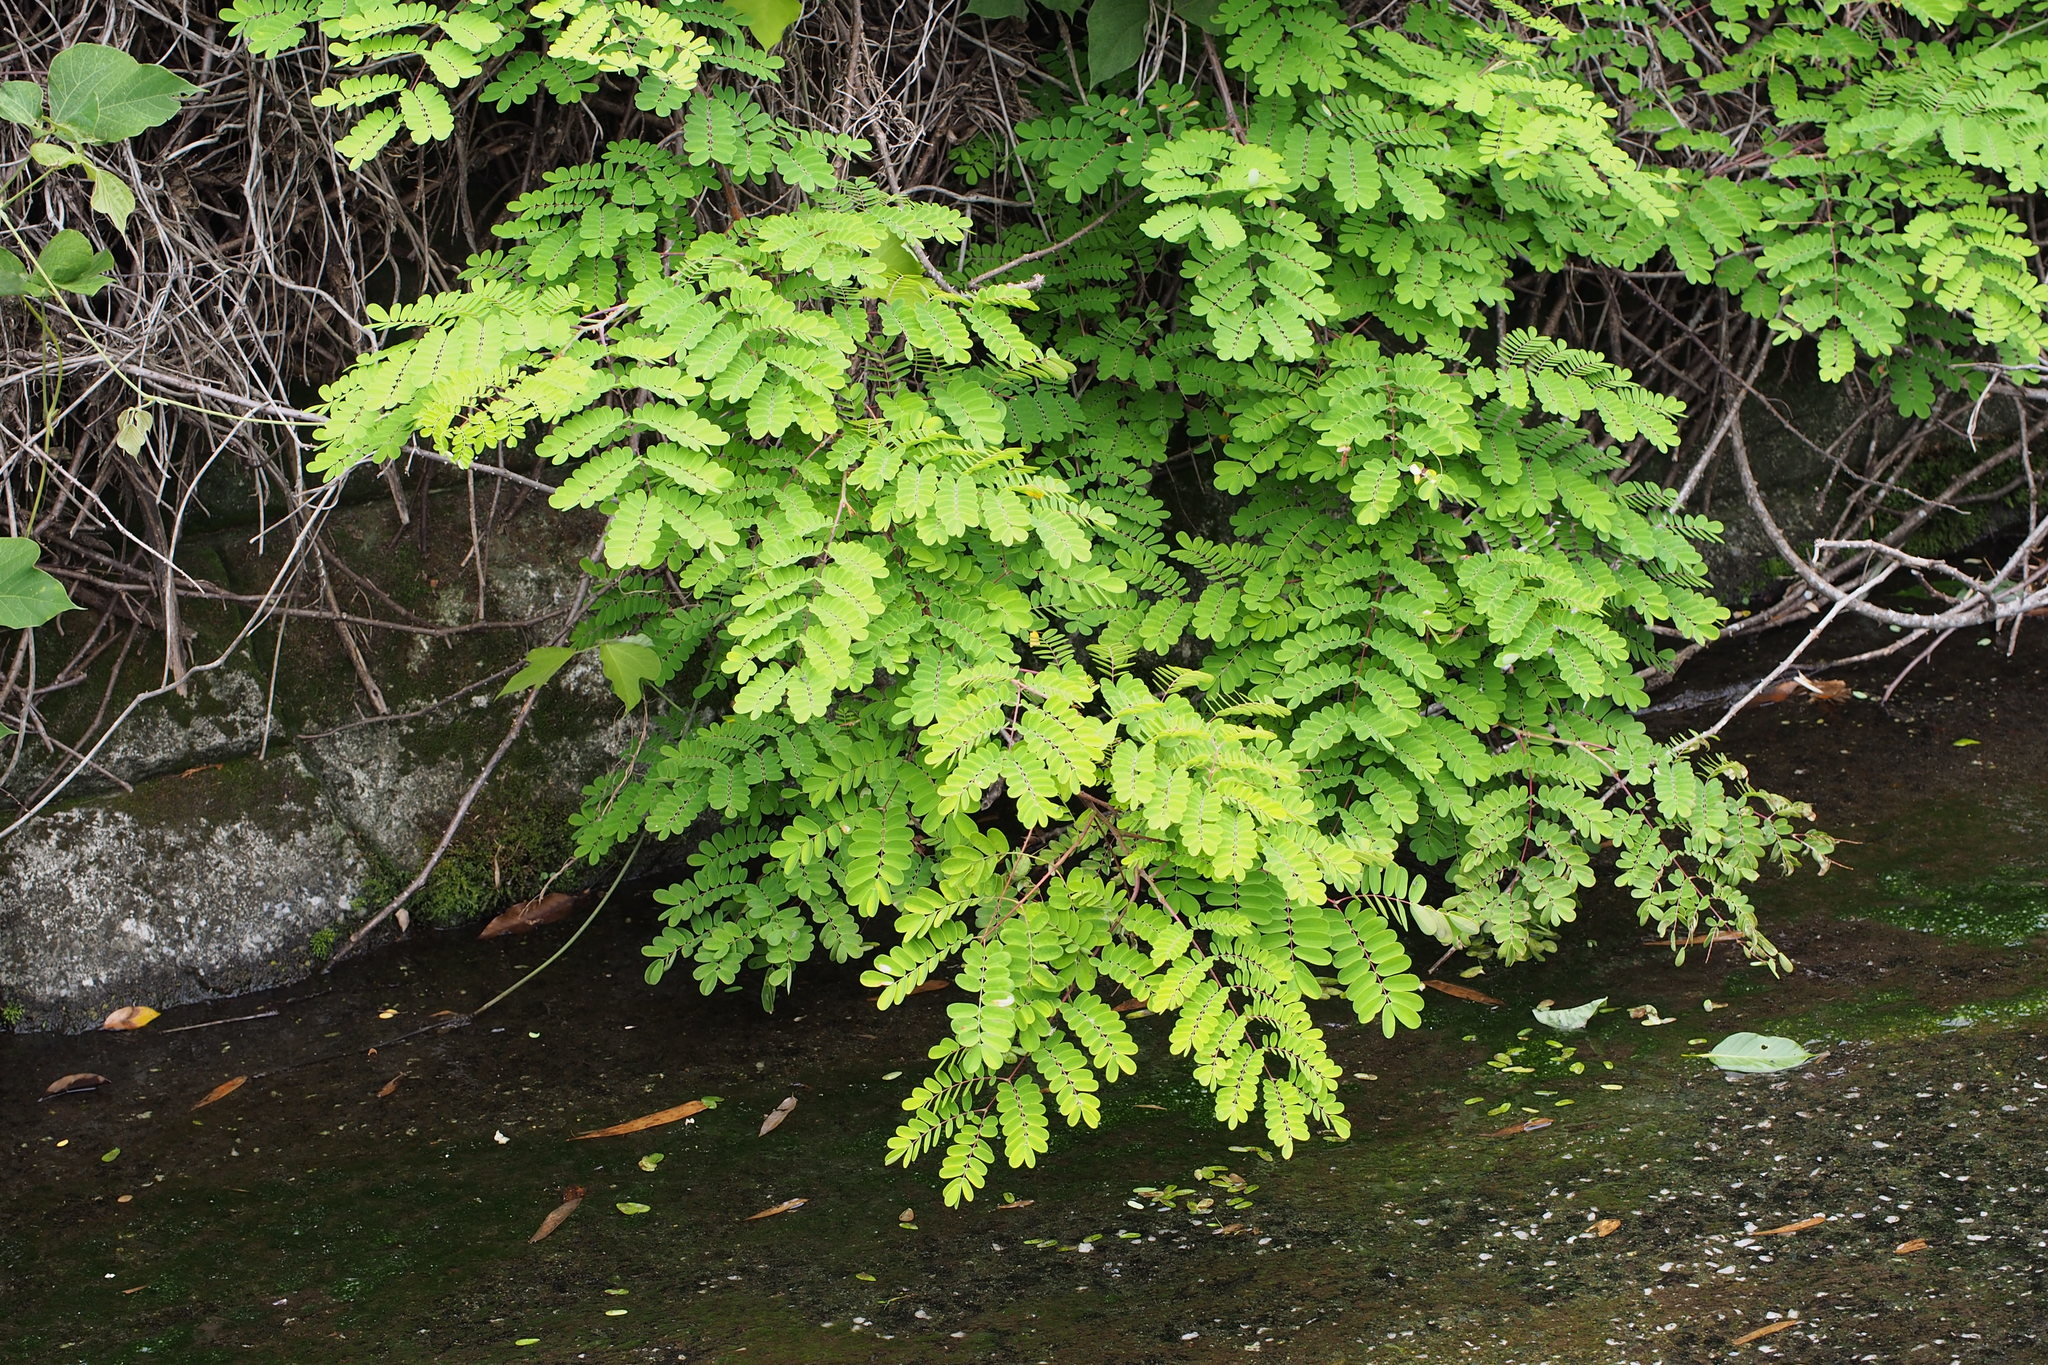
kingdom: Plantae
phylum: Tracheophyta
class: Magnoliopsida
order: Fabales
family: Fabaceae
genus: Biancaea
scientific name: Biancaea decapetala
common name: Cat's claw
